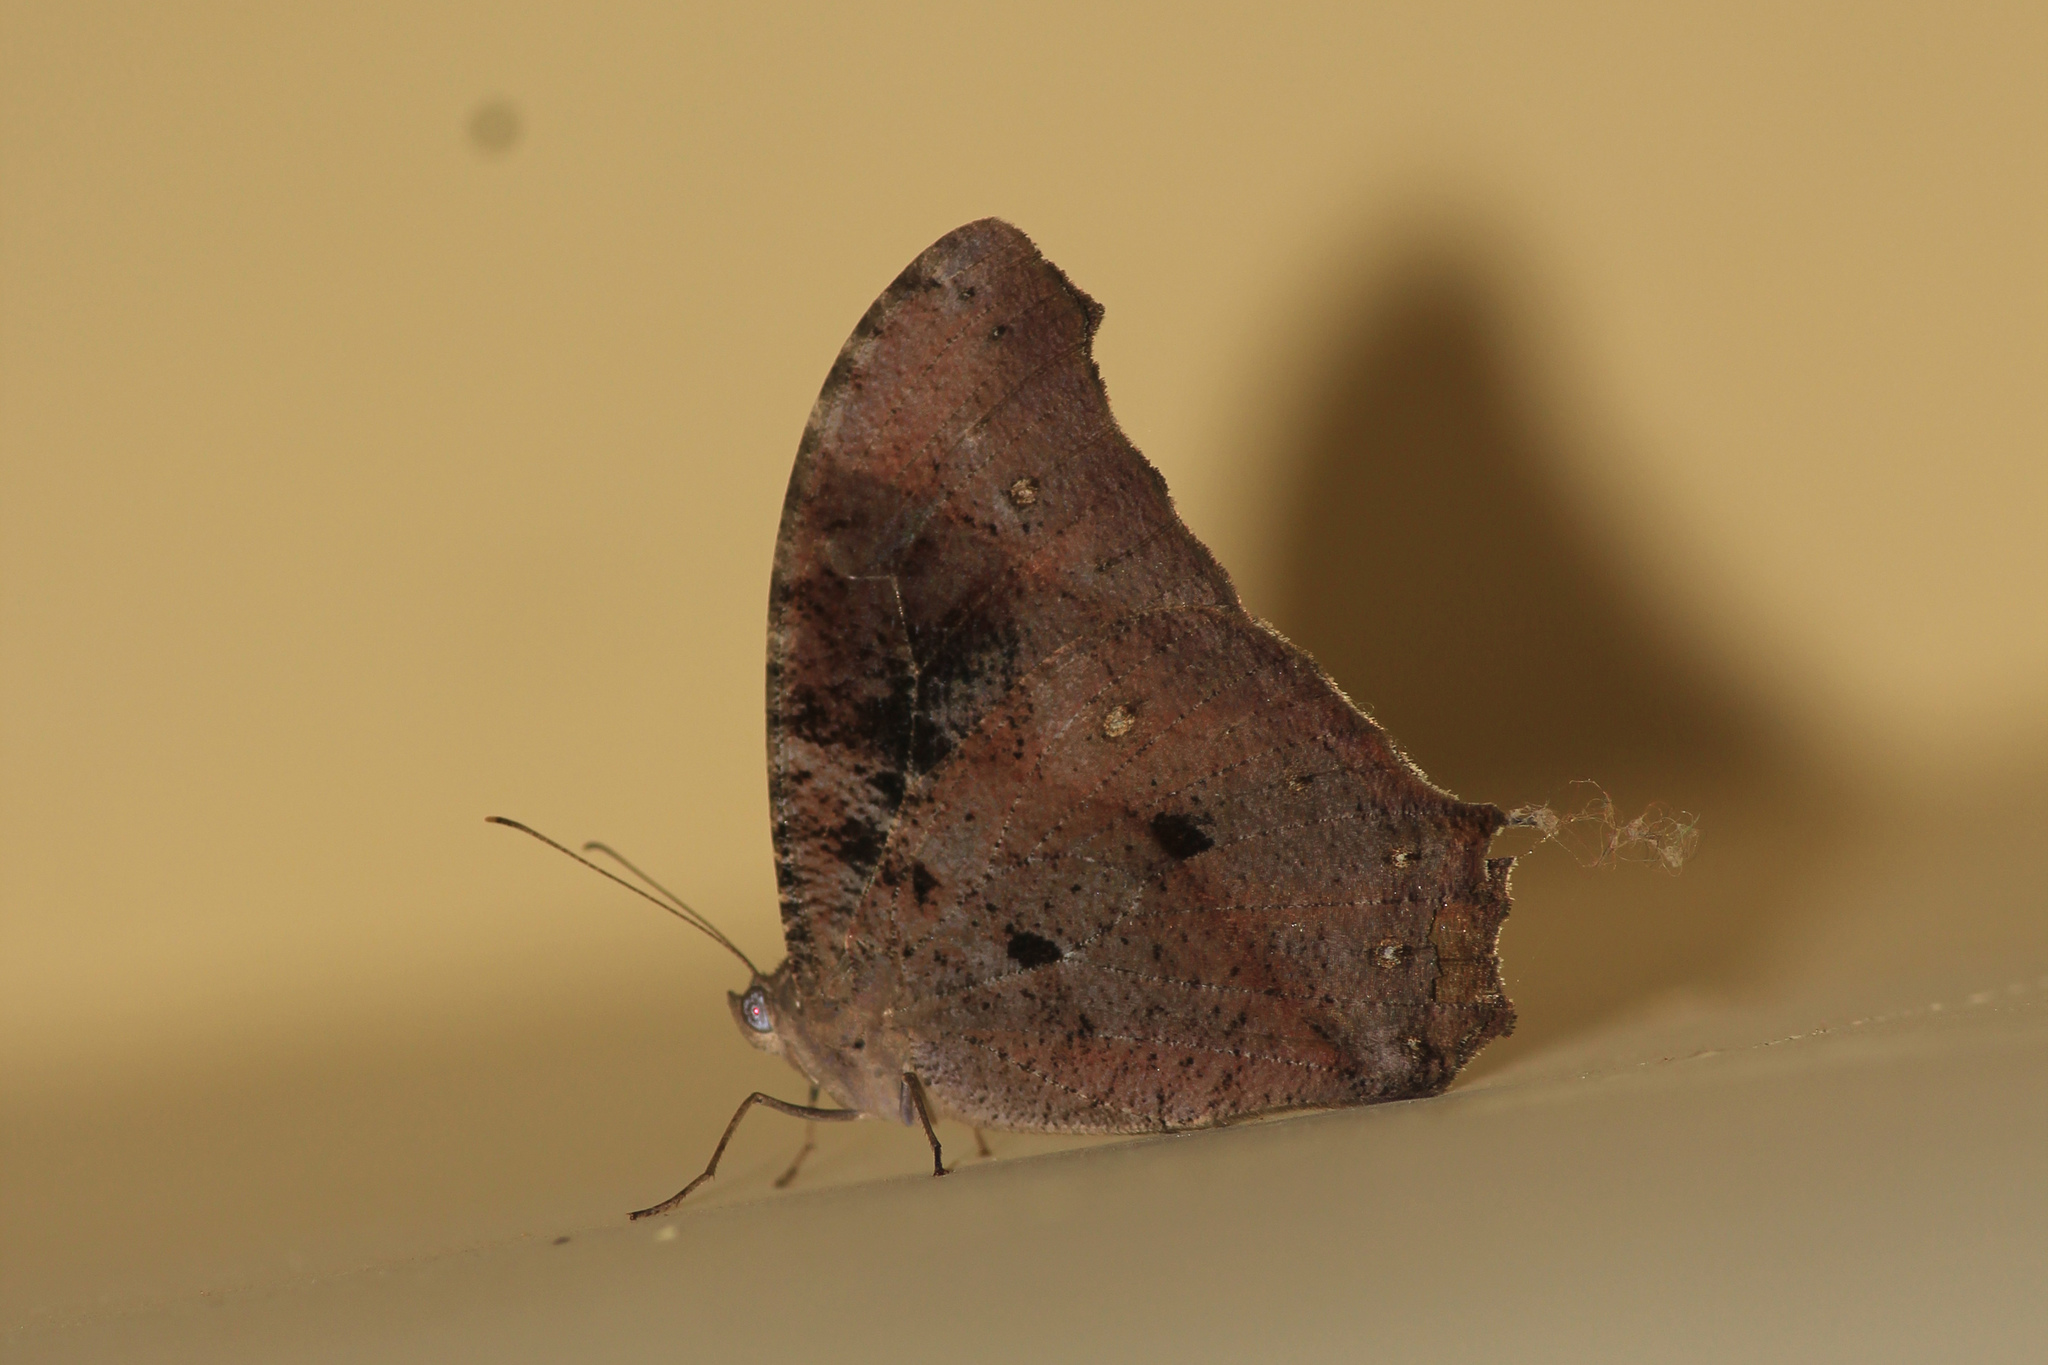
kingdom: Animalia
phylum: Arthropoda
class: Insecta
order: Lepidoptera
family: Nymphalidae
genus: Melanitis
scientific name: Melanitis leda
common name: Twilight brown
